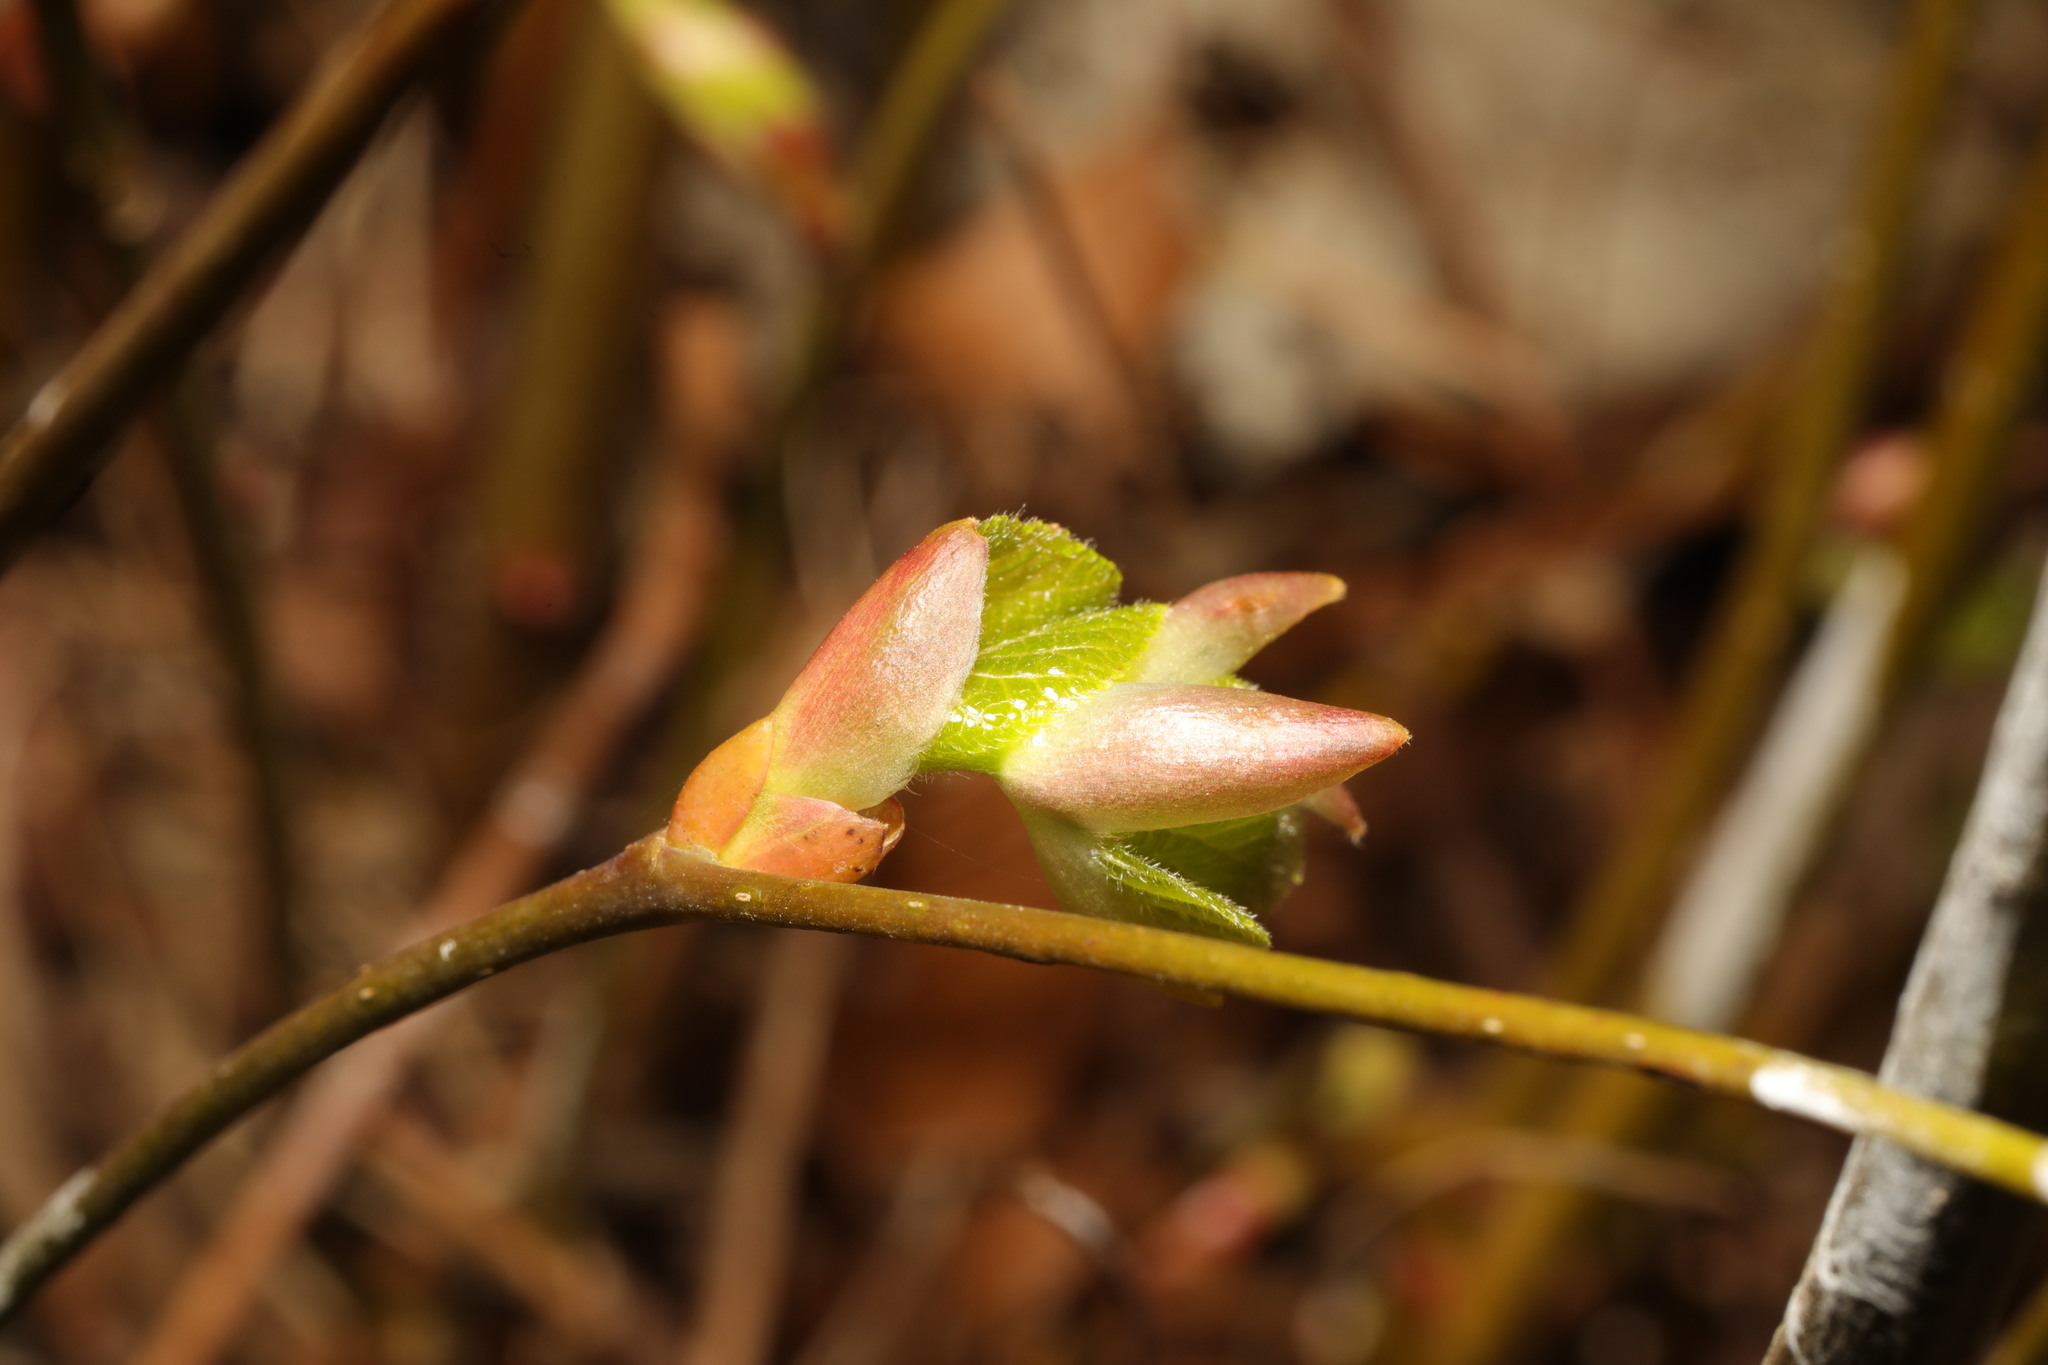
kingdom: Plantae
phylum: Tracheophyta
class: Magnoliopsida
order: Malvales
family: Malvaceae
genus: Tilia
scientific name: Tilia europaea
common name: European linden
